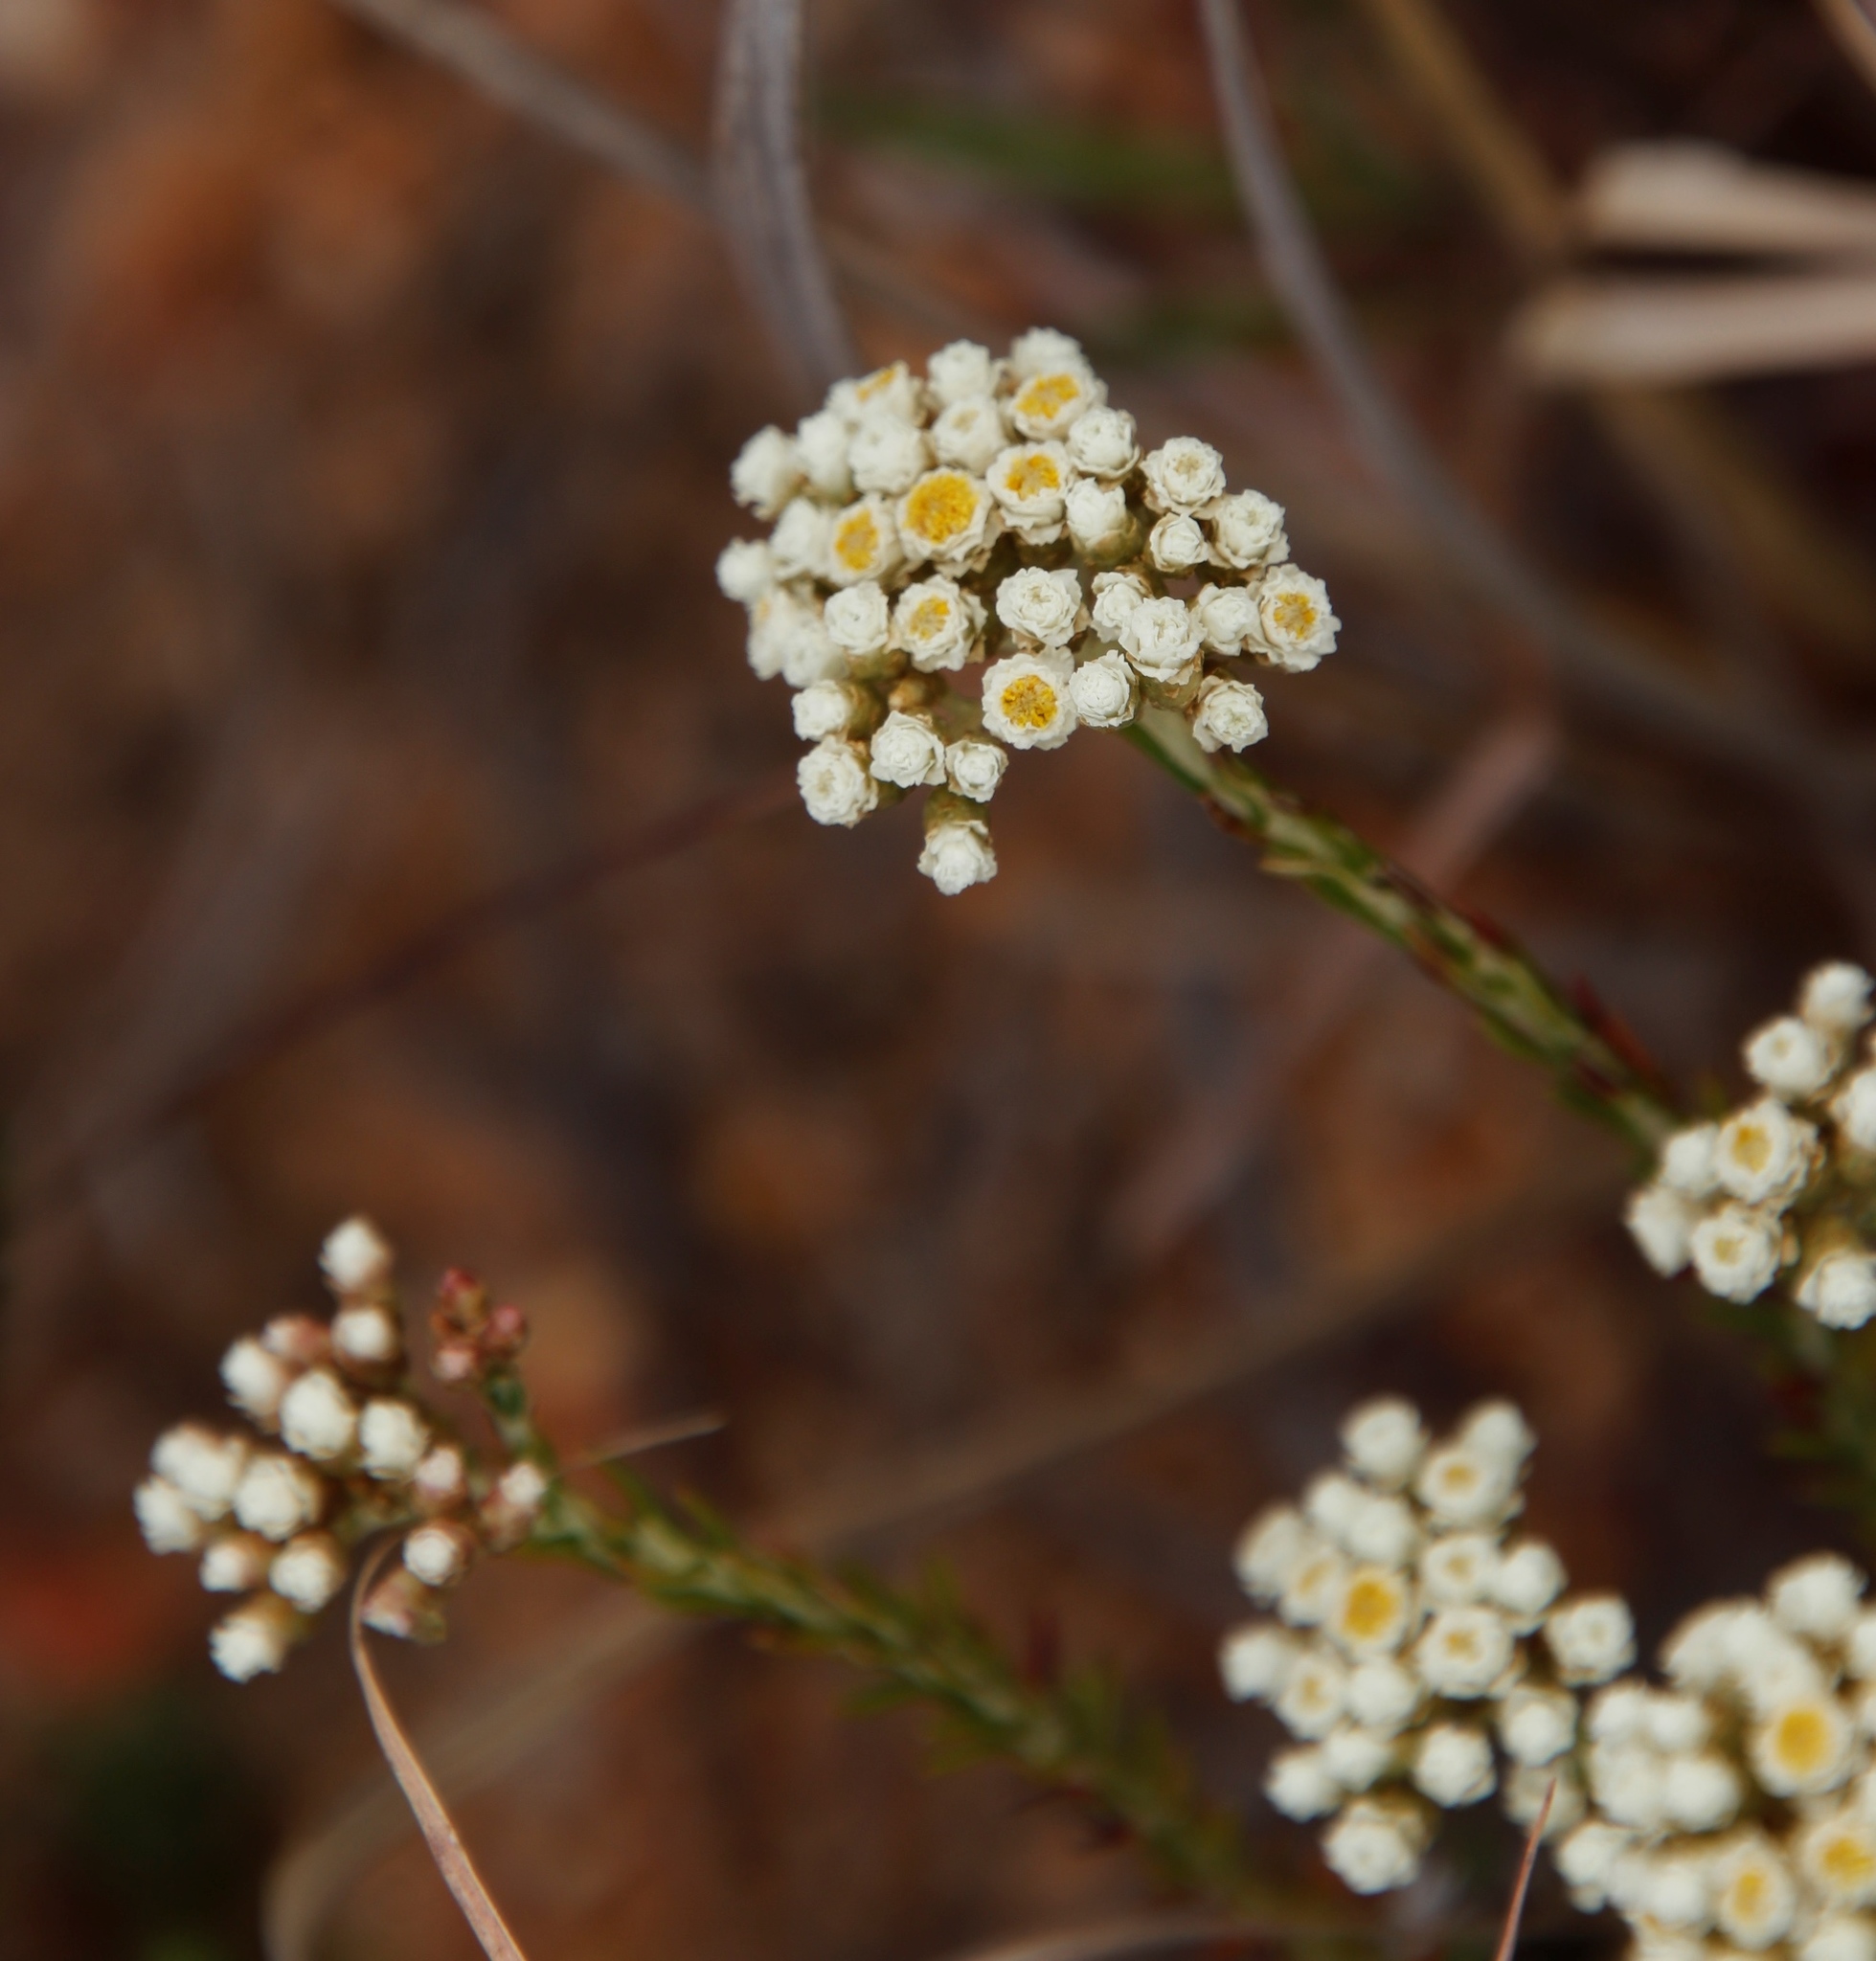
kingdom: Plantae
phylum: Tracheophyta
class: Magnoliopsida
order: Asterales
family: Asteraceae
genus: Helichrysum
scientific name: Helichrysum teretifolium
